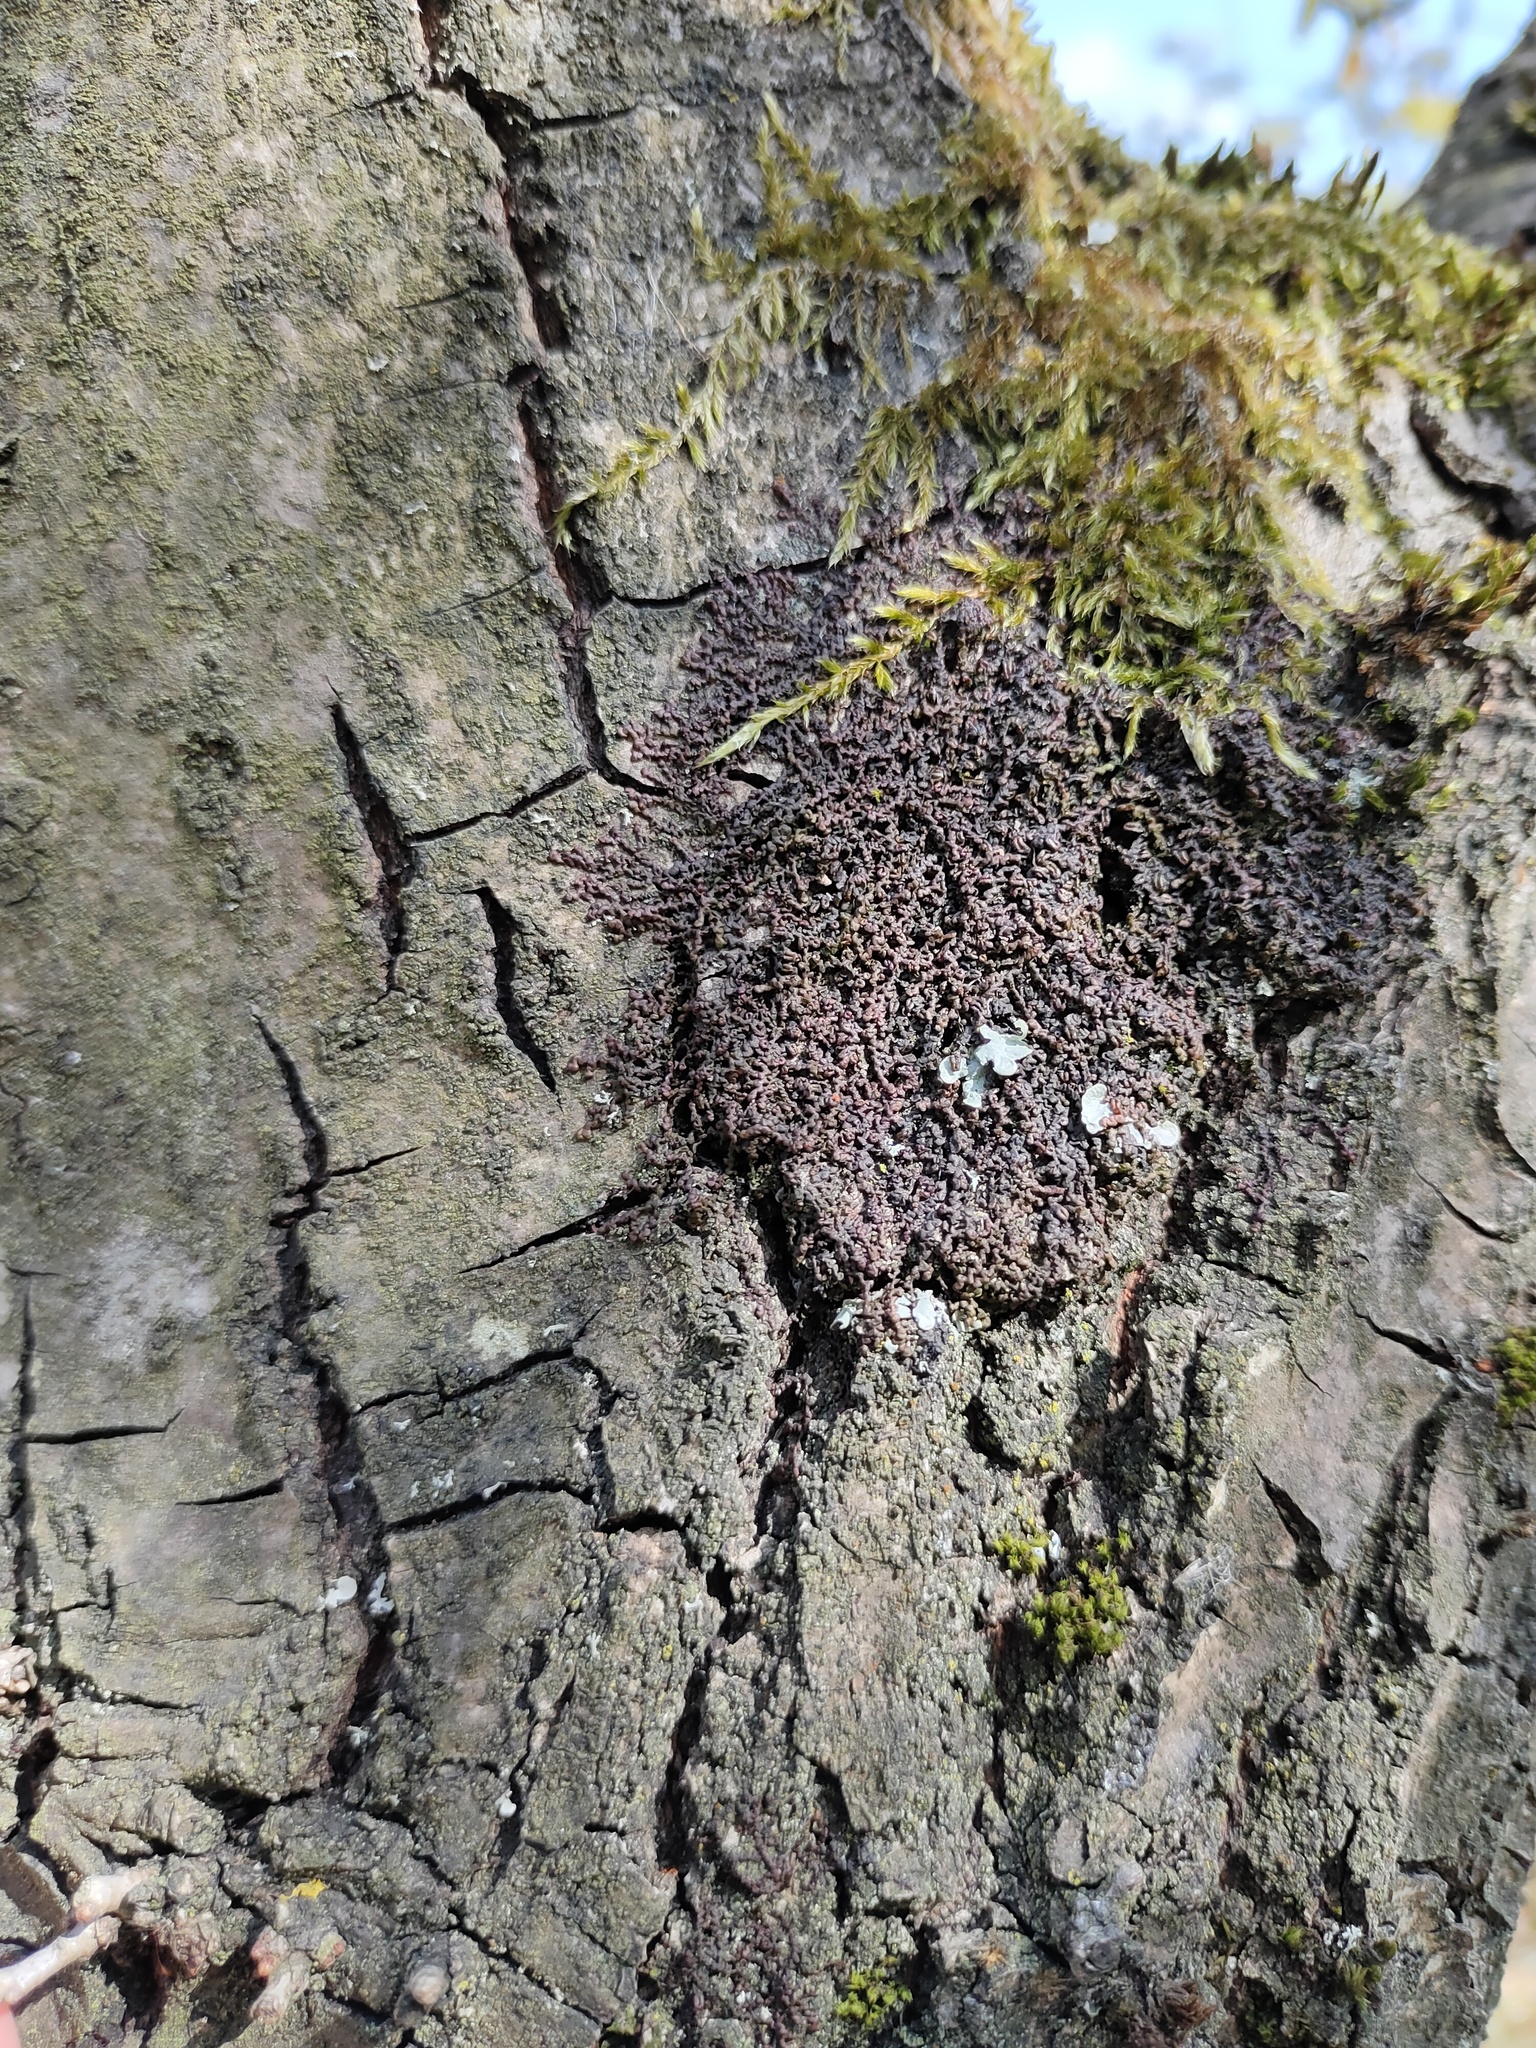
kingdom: Plantae
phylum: Marchantiophyta
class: Jungermanniopsida
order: Porellales
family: Frullaniaceae
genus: Frullania
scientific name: Frullania dilatata
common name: Dilated scalewort
